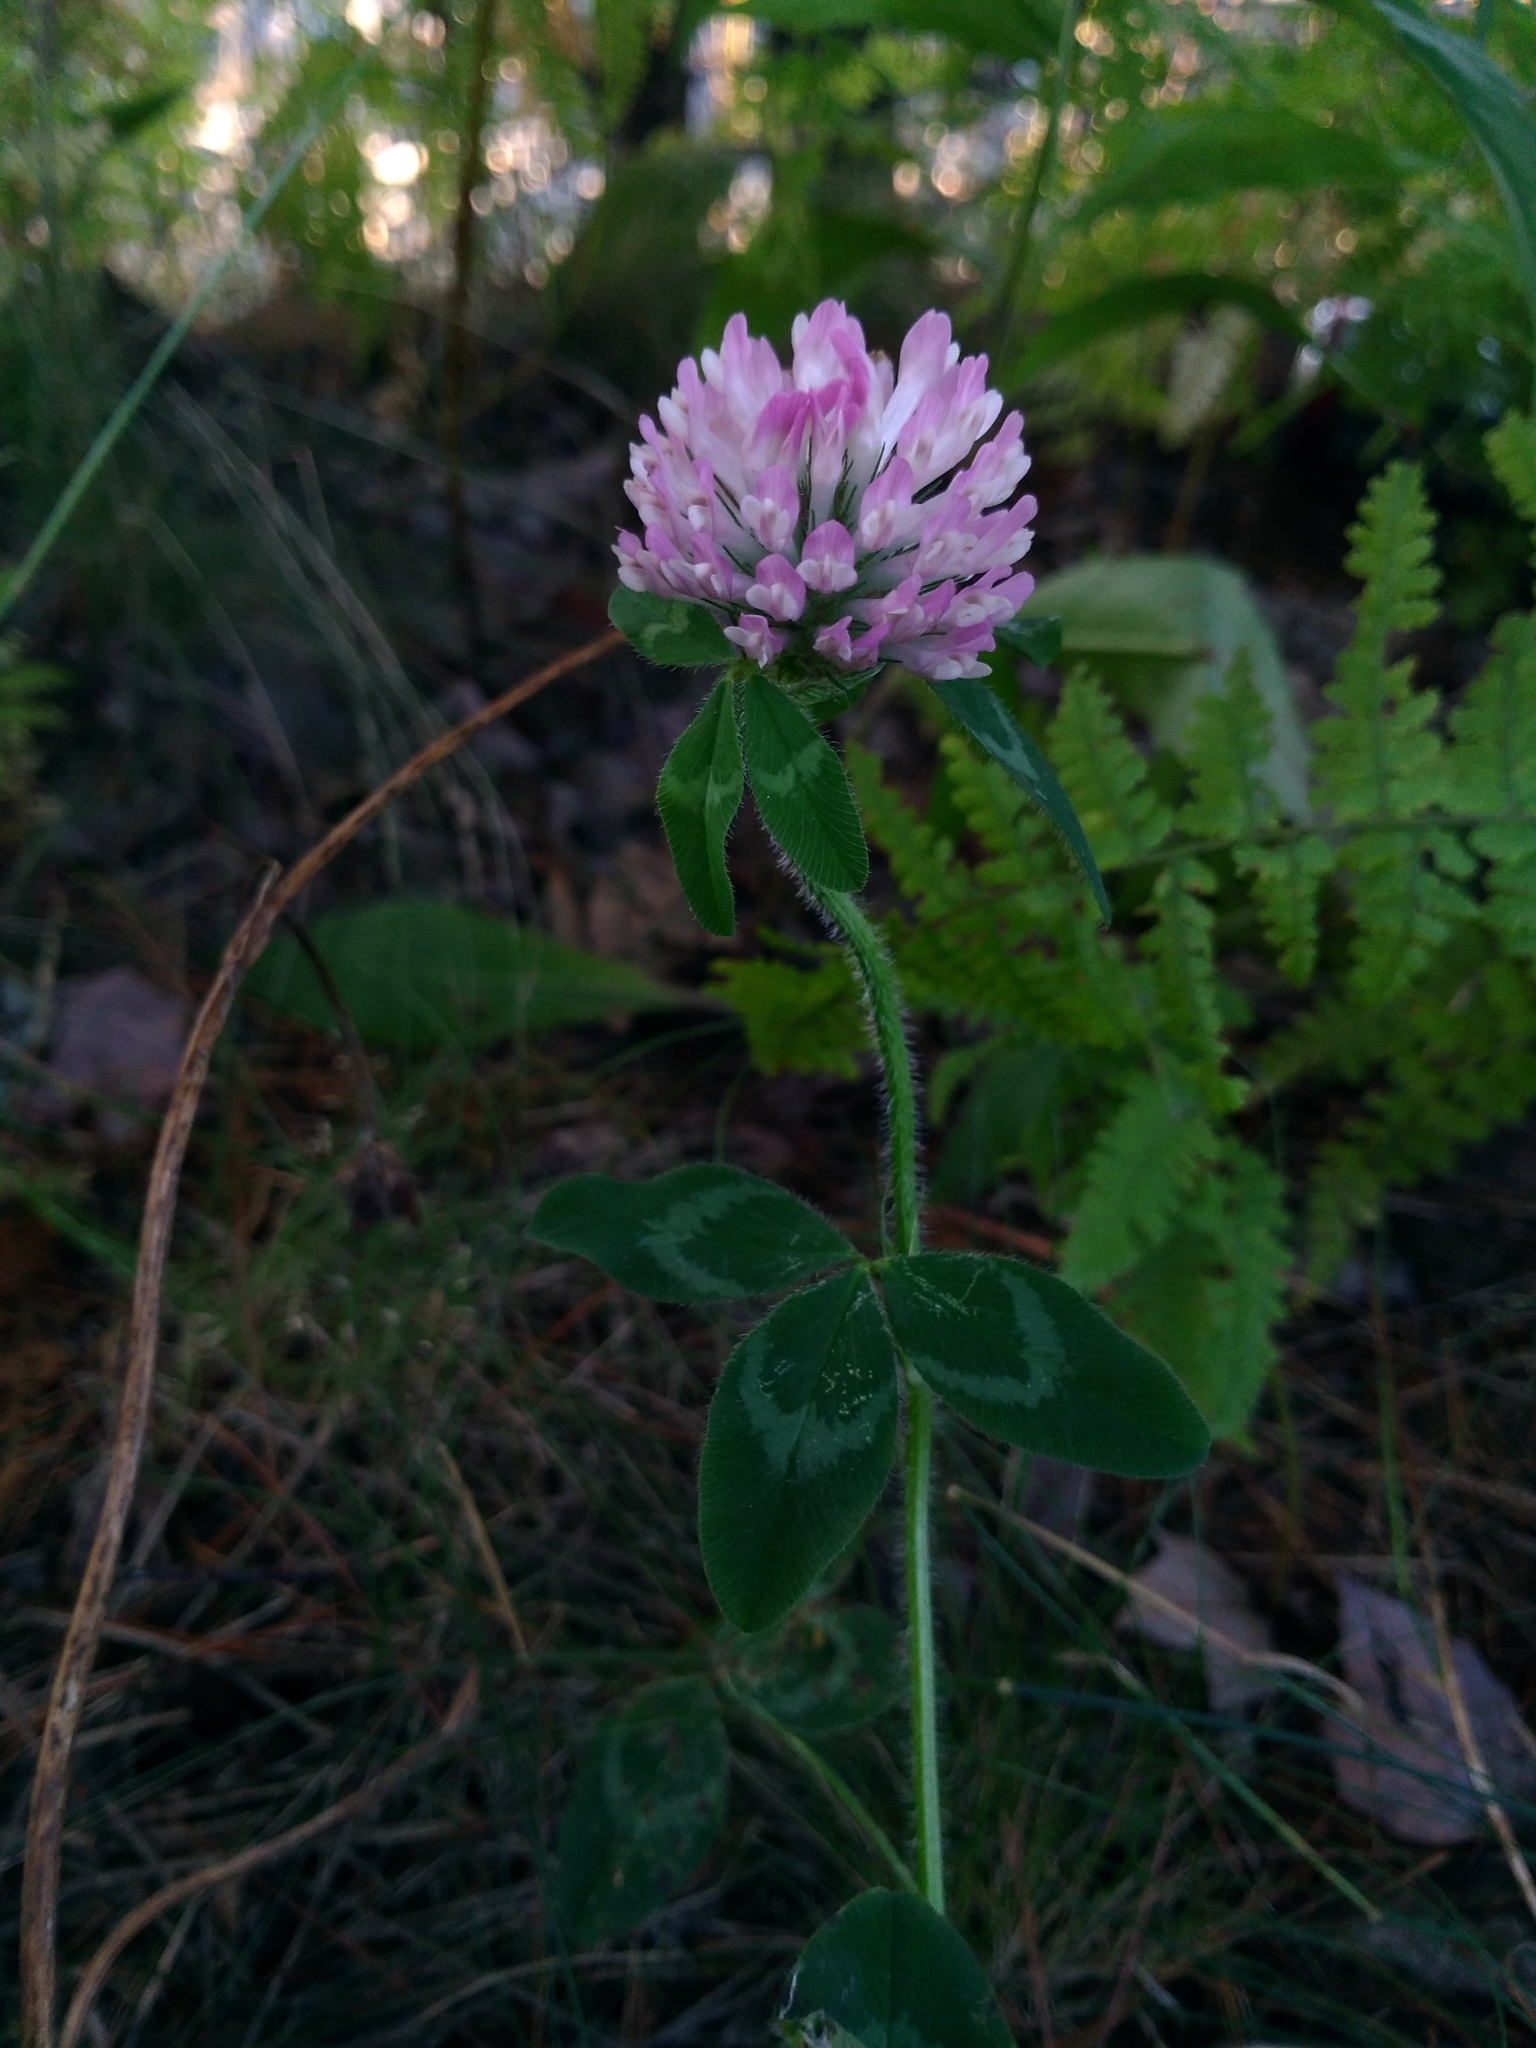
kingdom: Plantae
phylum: Tracheophyta
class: Magnoliopsida
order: Fabales
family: Fabaceae
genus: Trifolium
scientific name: Trifolium pratense
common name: Red clover
